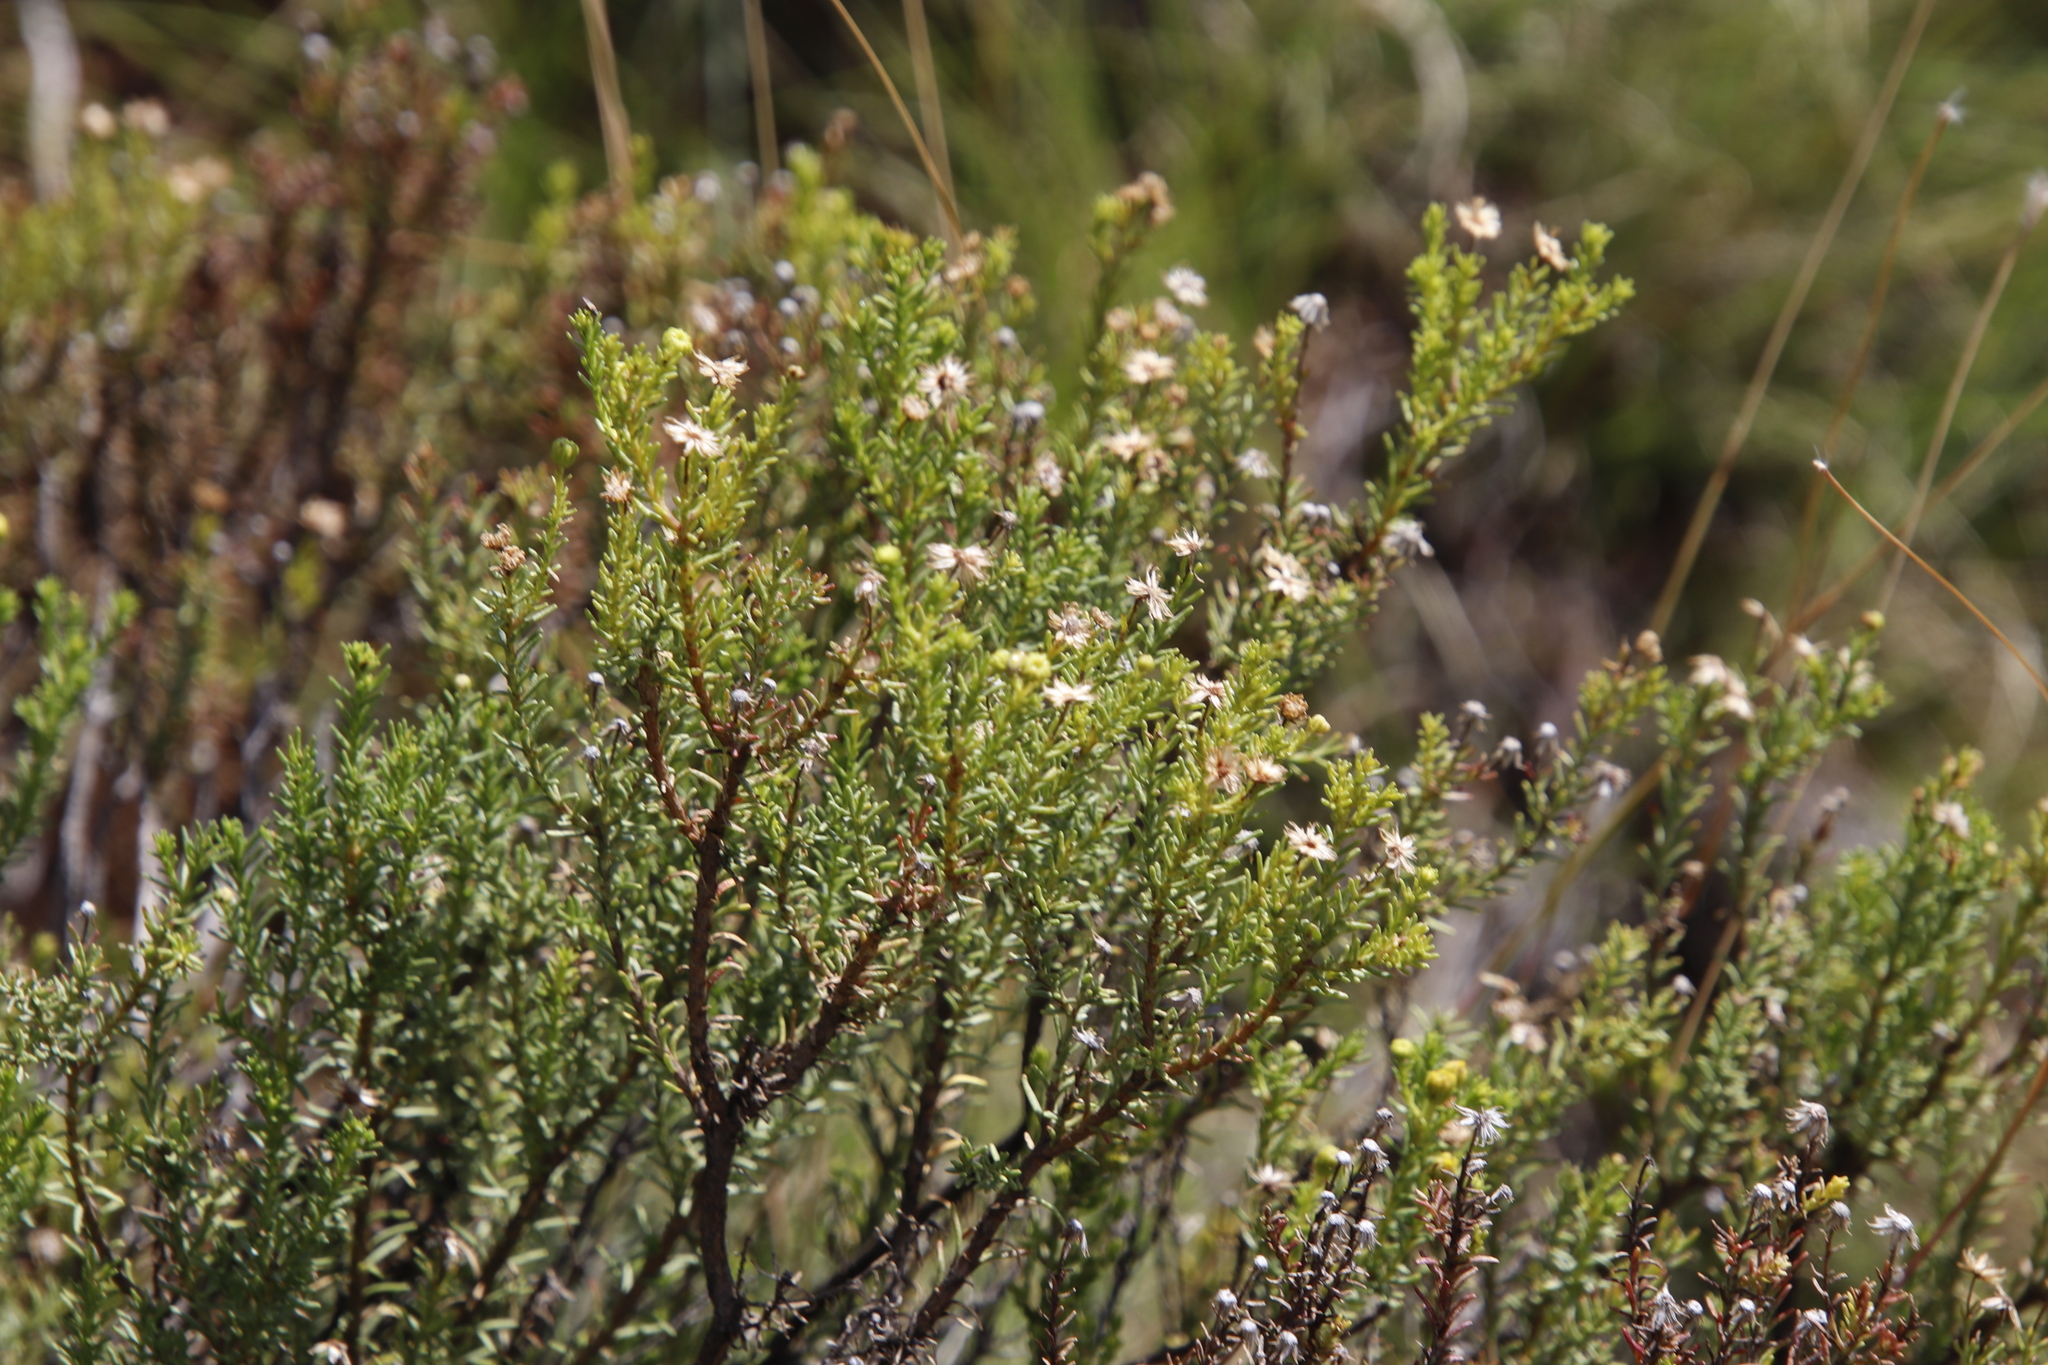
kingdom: Plantae
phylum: Tracheophyta
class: Magnoliopsida
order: Asterales
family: Asteraceae
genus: Chrysocoma
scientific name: Chrysocoma ciliata
